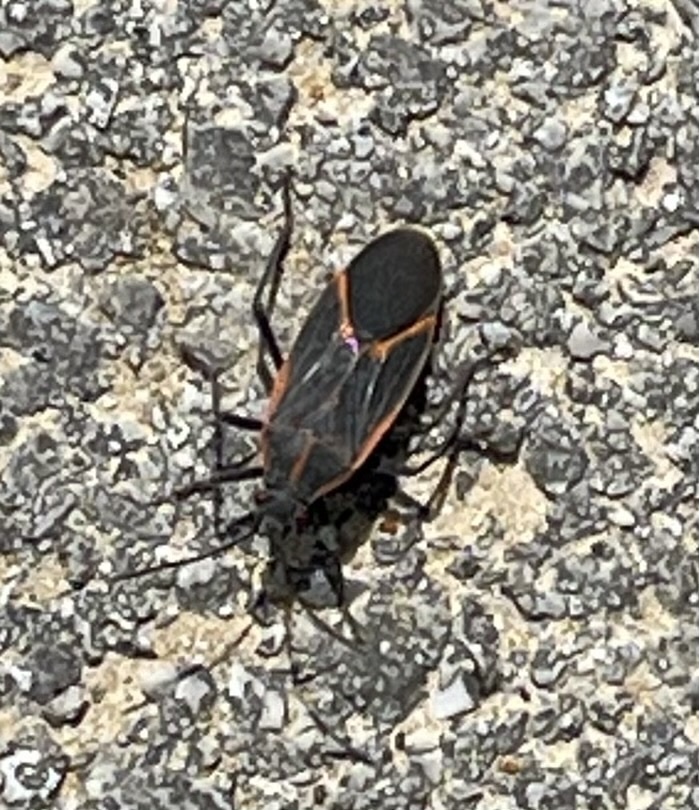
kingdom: Animalia
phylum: Arthropoda
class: Insecta
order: Hemiptera
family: Rhopalidae
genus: Boisea
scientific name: Boisea trivittata
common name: Boxelder bug
